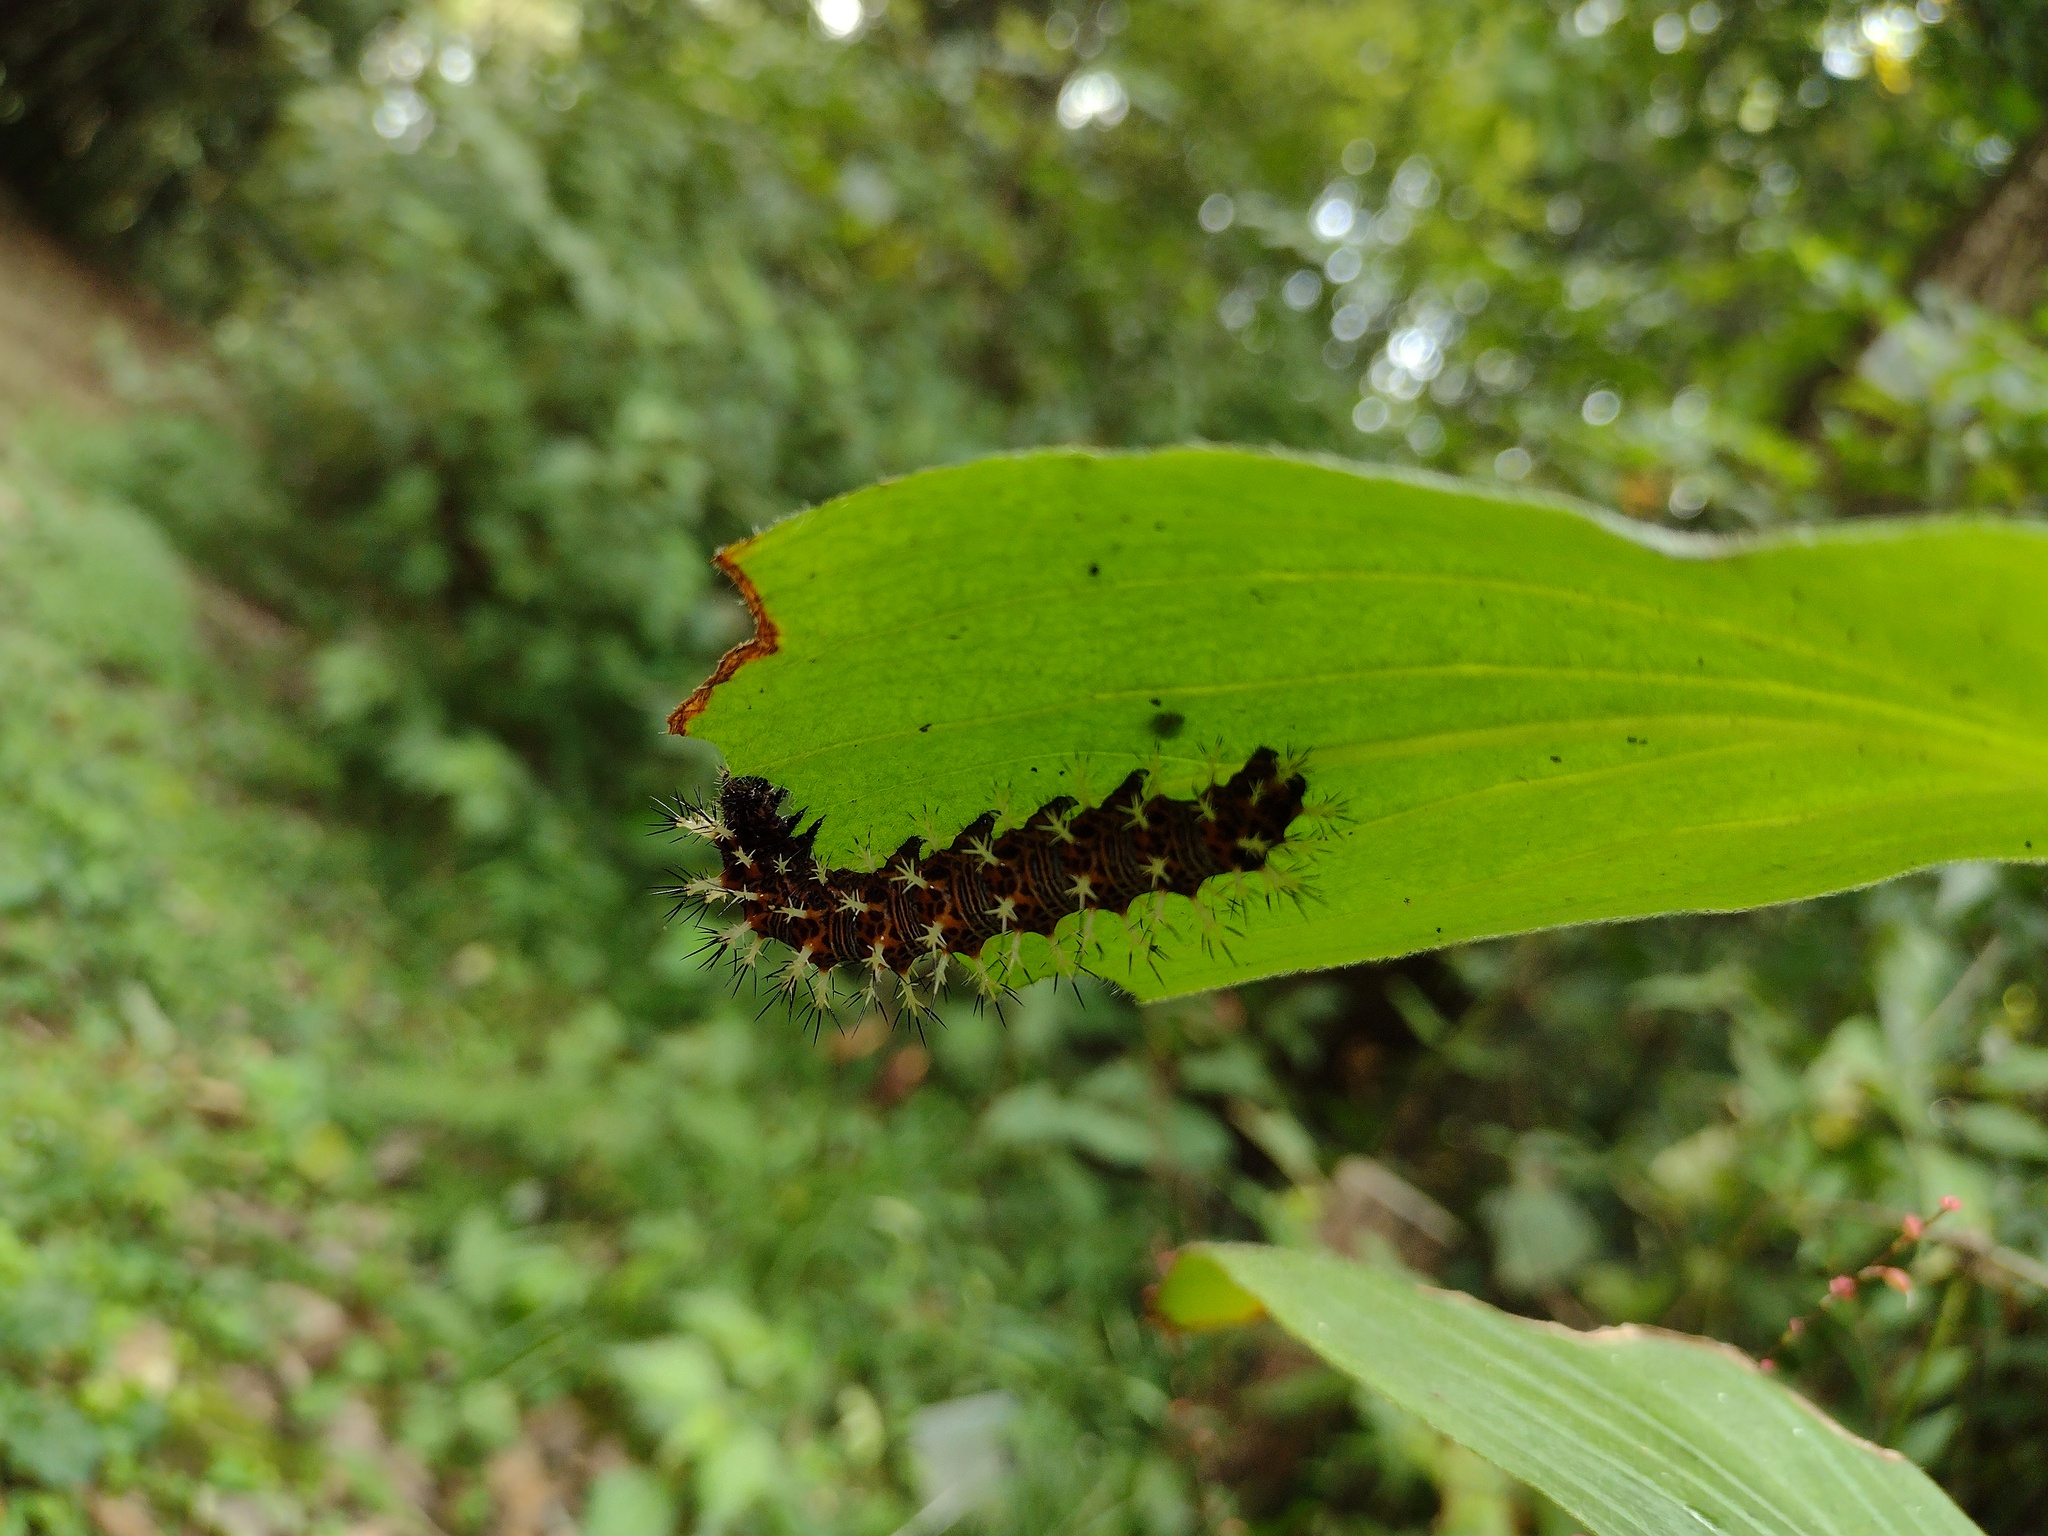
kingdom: Animalia
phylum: Arthropoda
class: Insecta
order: Lepidoptera
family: Nymphalidae
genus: Vanessa
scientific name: Vanessa Kaniska canace
